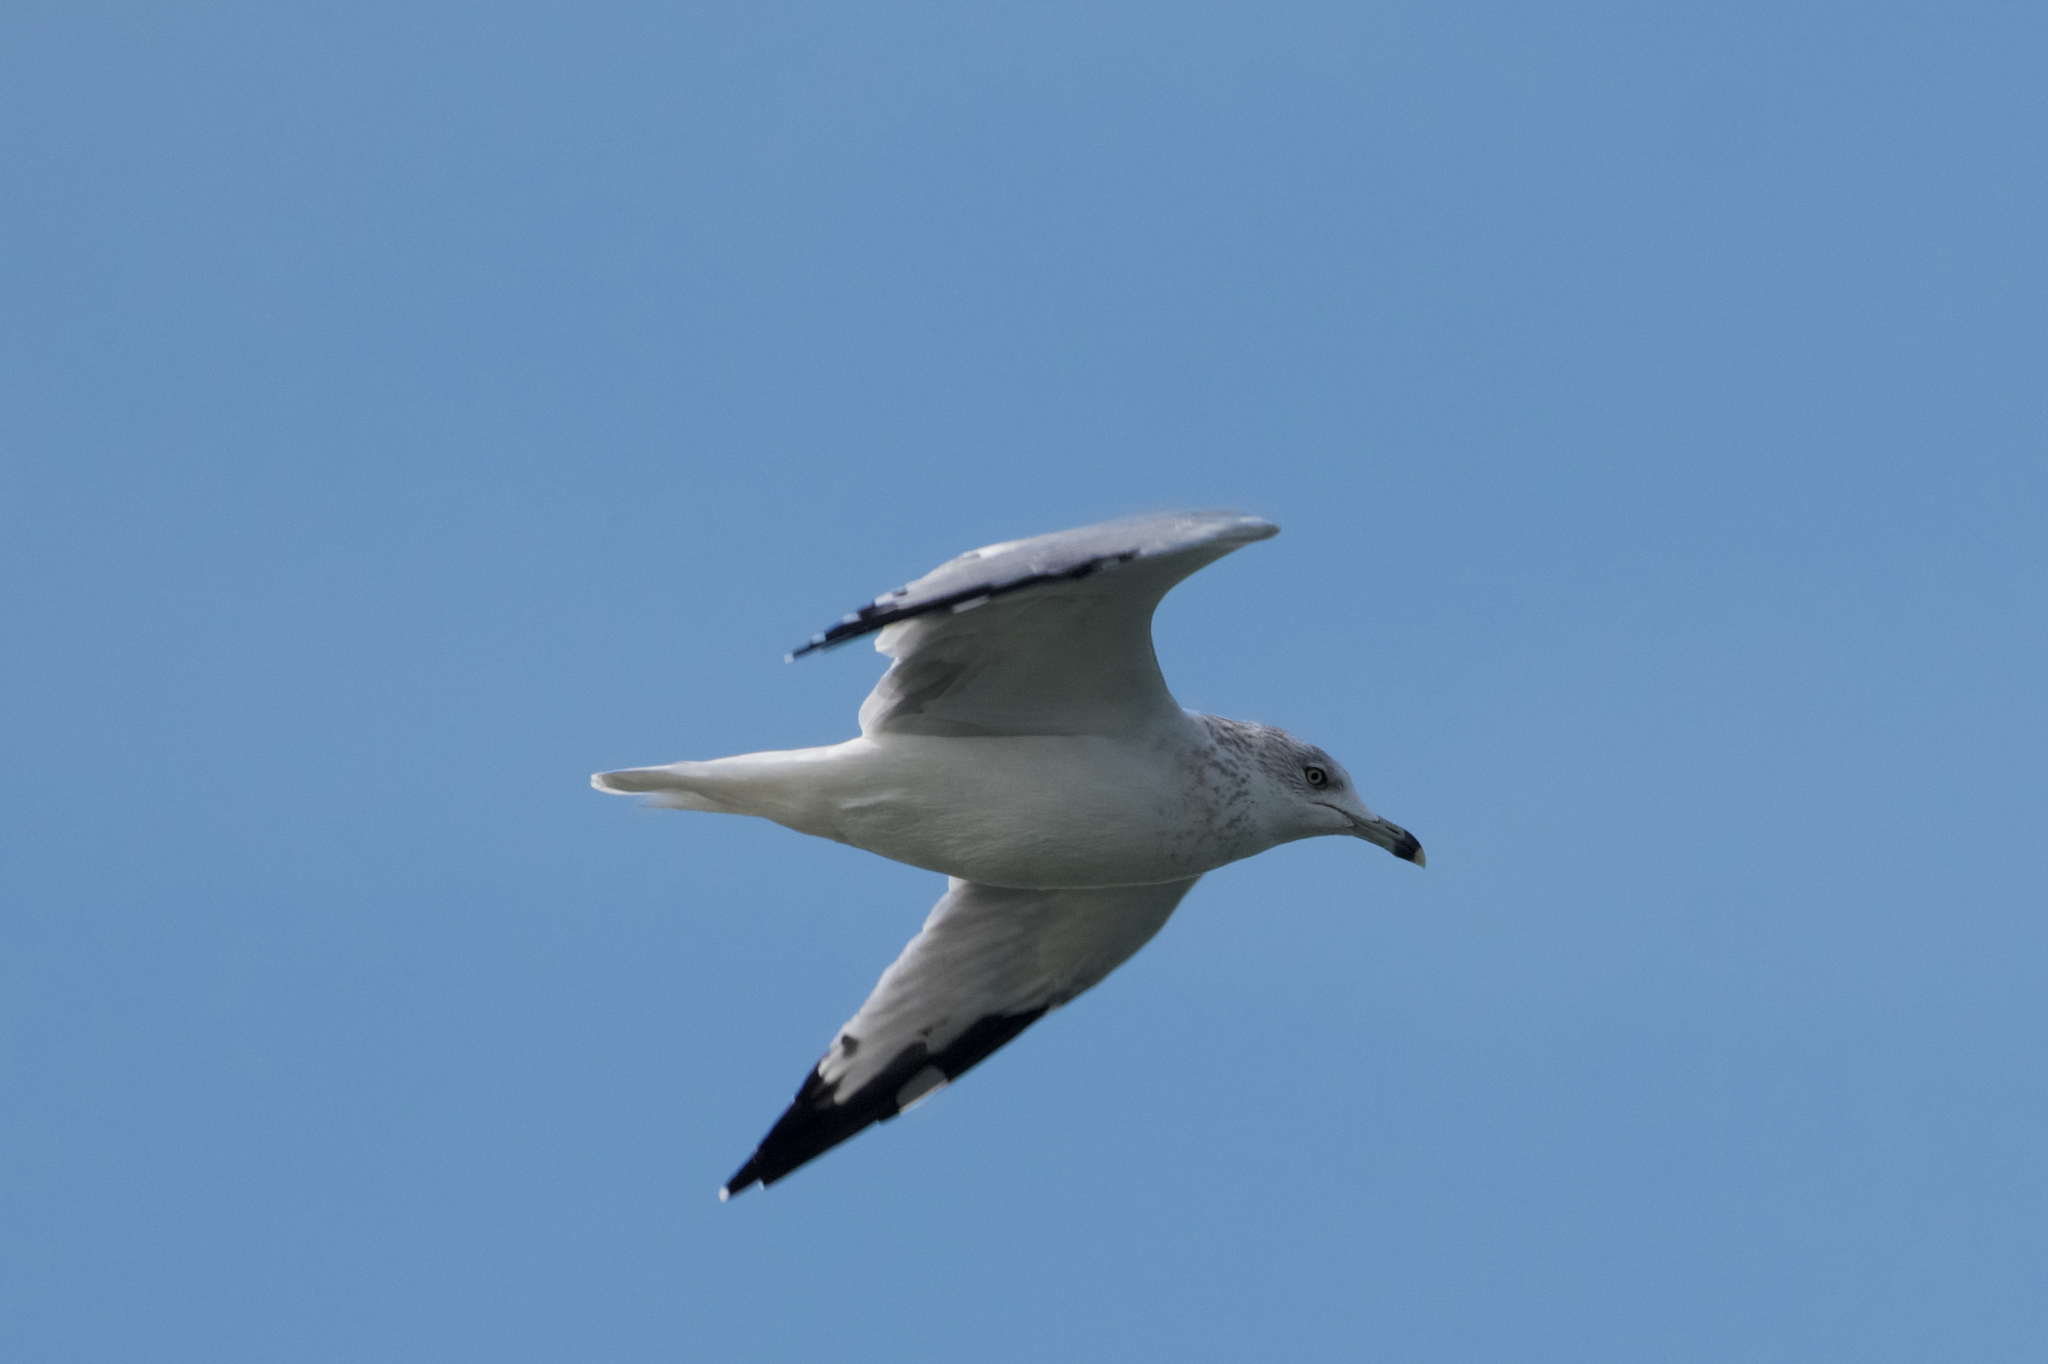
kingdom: Animalia
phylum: Chordata
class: Aves
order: Charadriiformes
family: Laridae
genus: Larus
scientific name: Larus delawarensis
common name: Ring-billed gull
